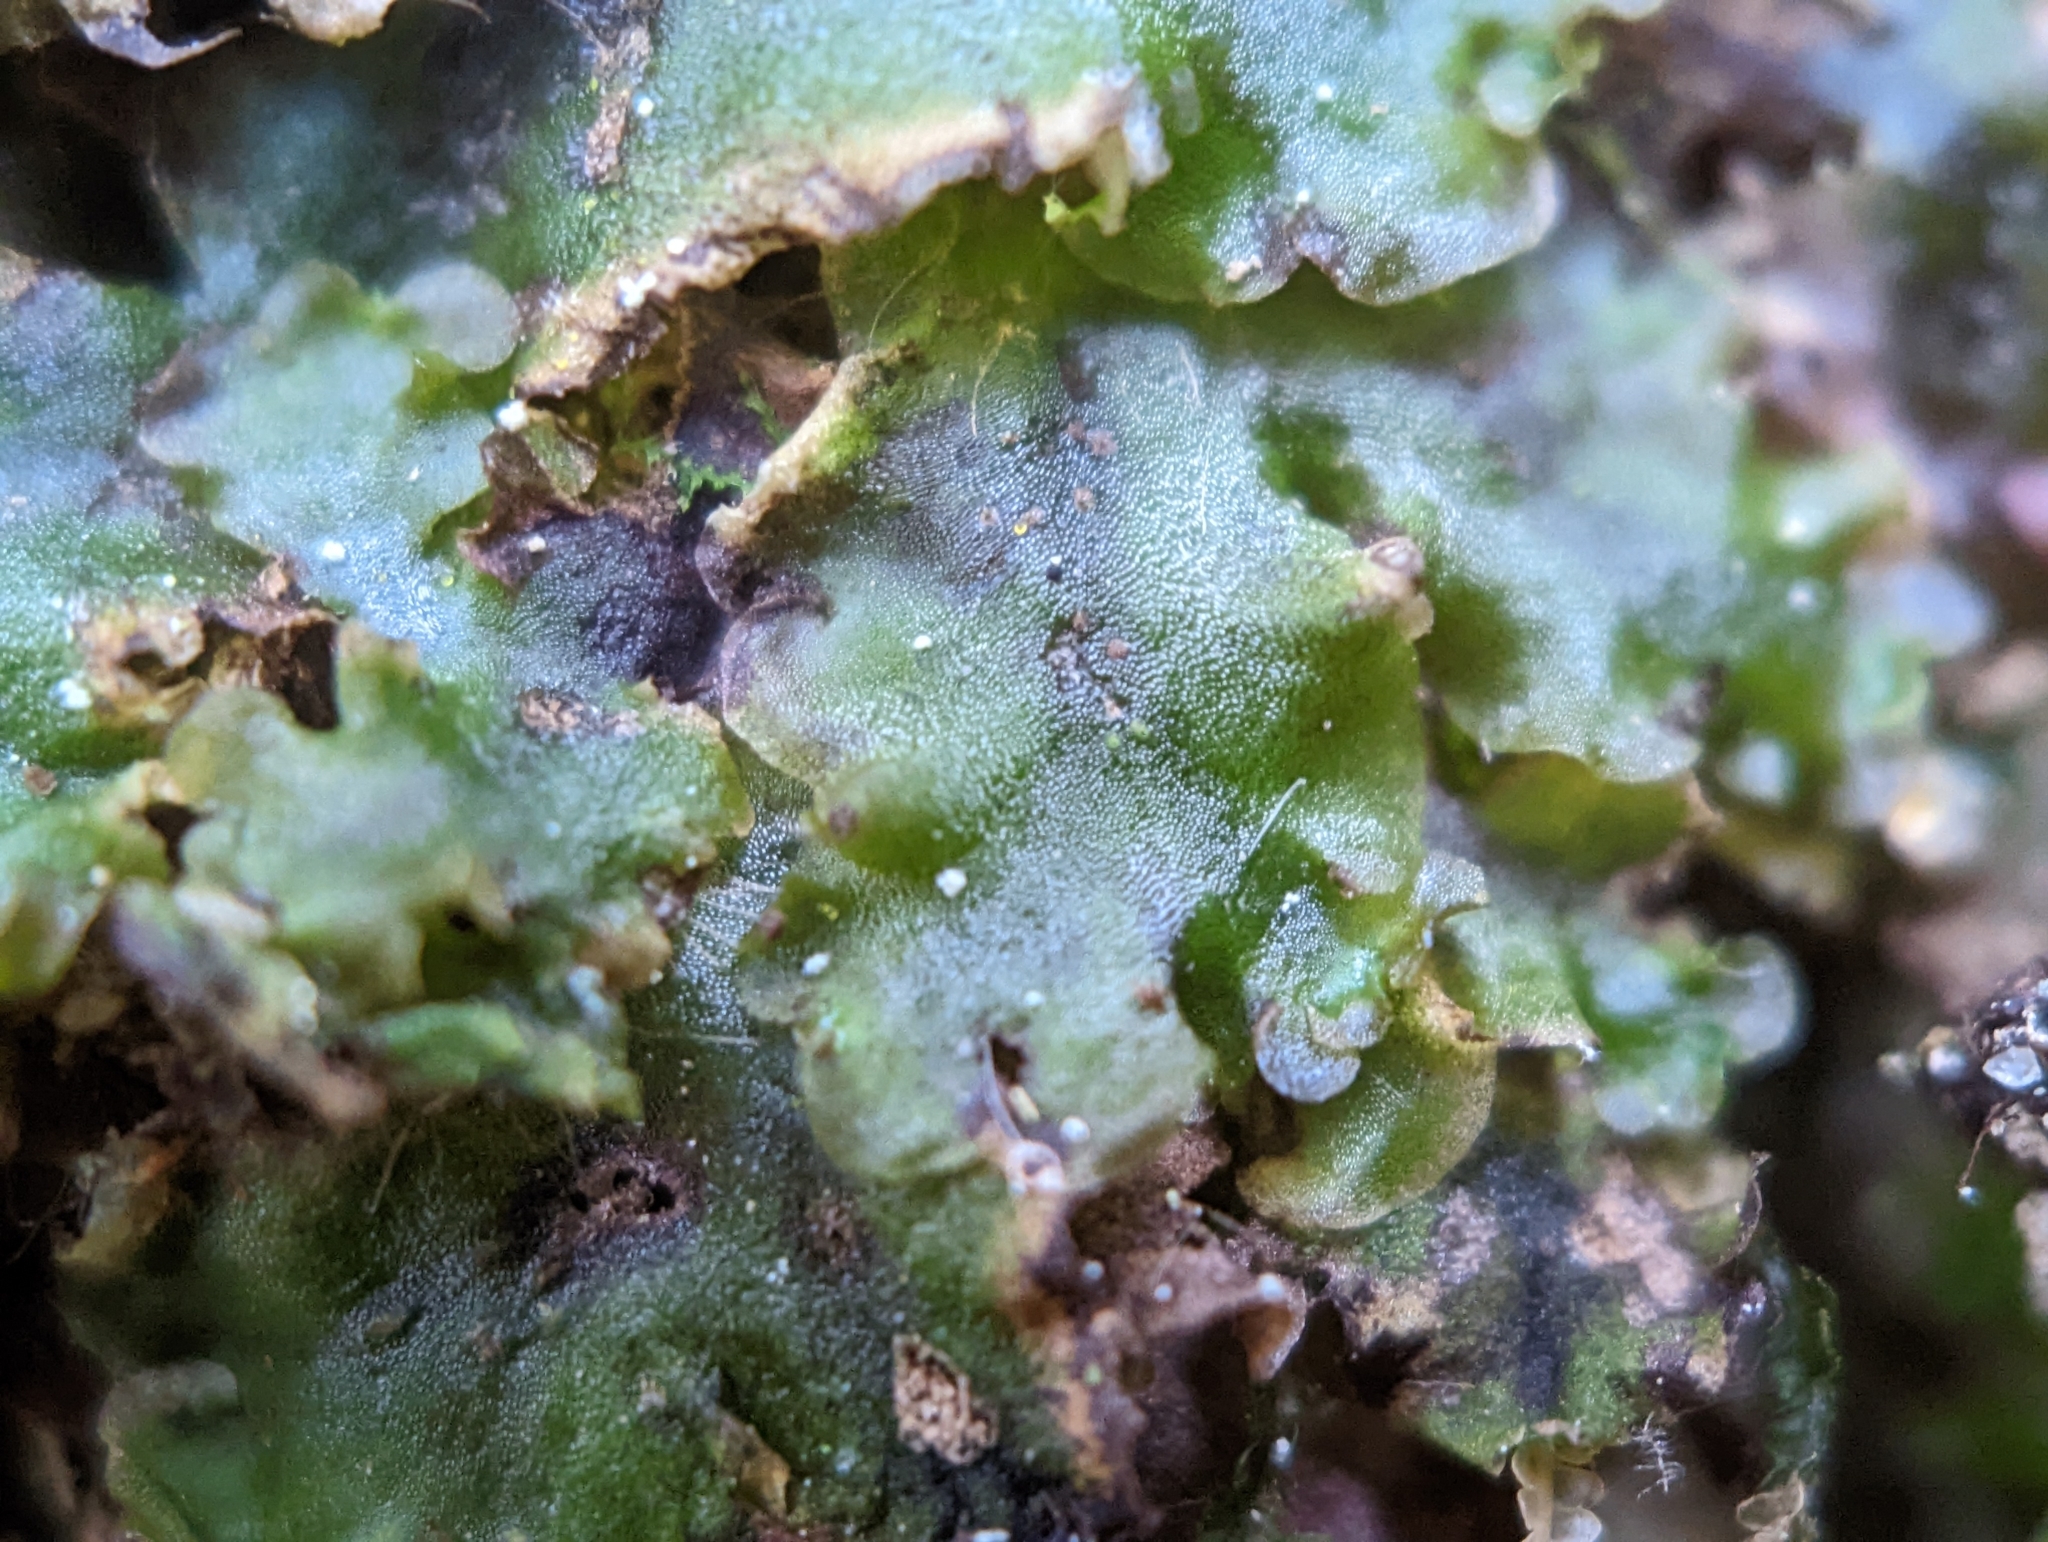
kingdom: Plantae
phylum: Marchantiophyta
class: Jungermanniopsida
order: Pelliales
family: Pelliaceae
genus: Pellia
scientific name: Pellia epiphylla
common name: Common pellia
